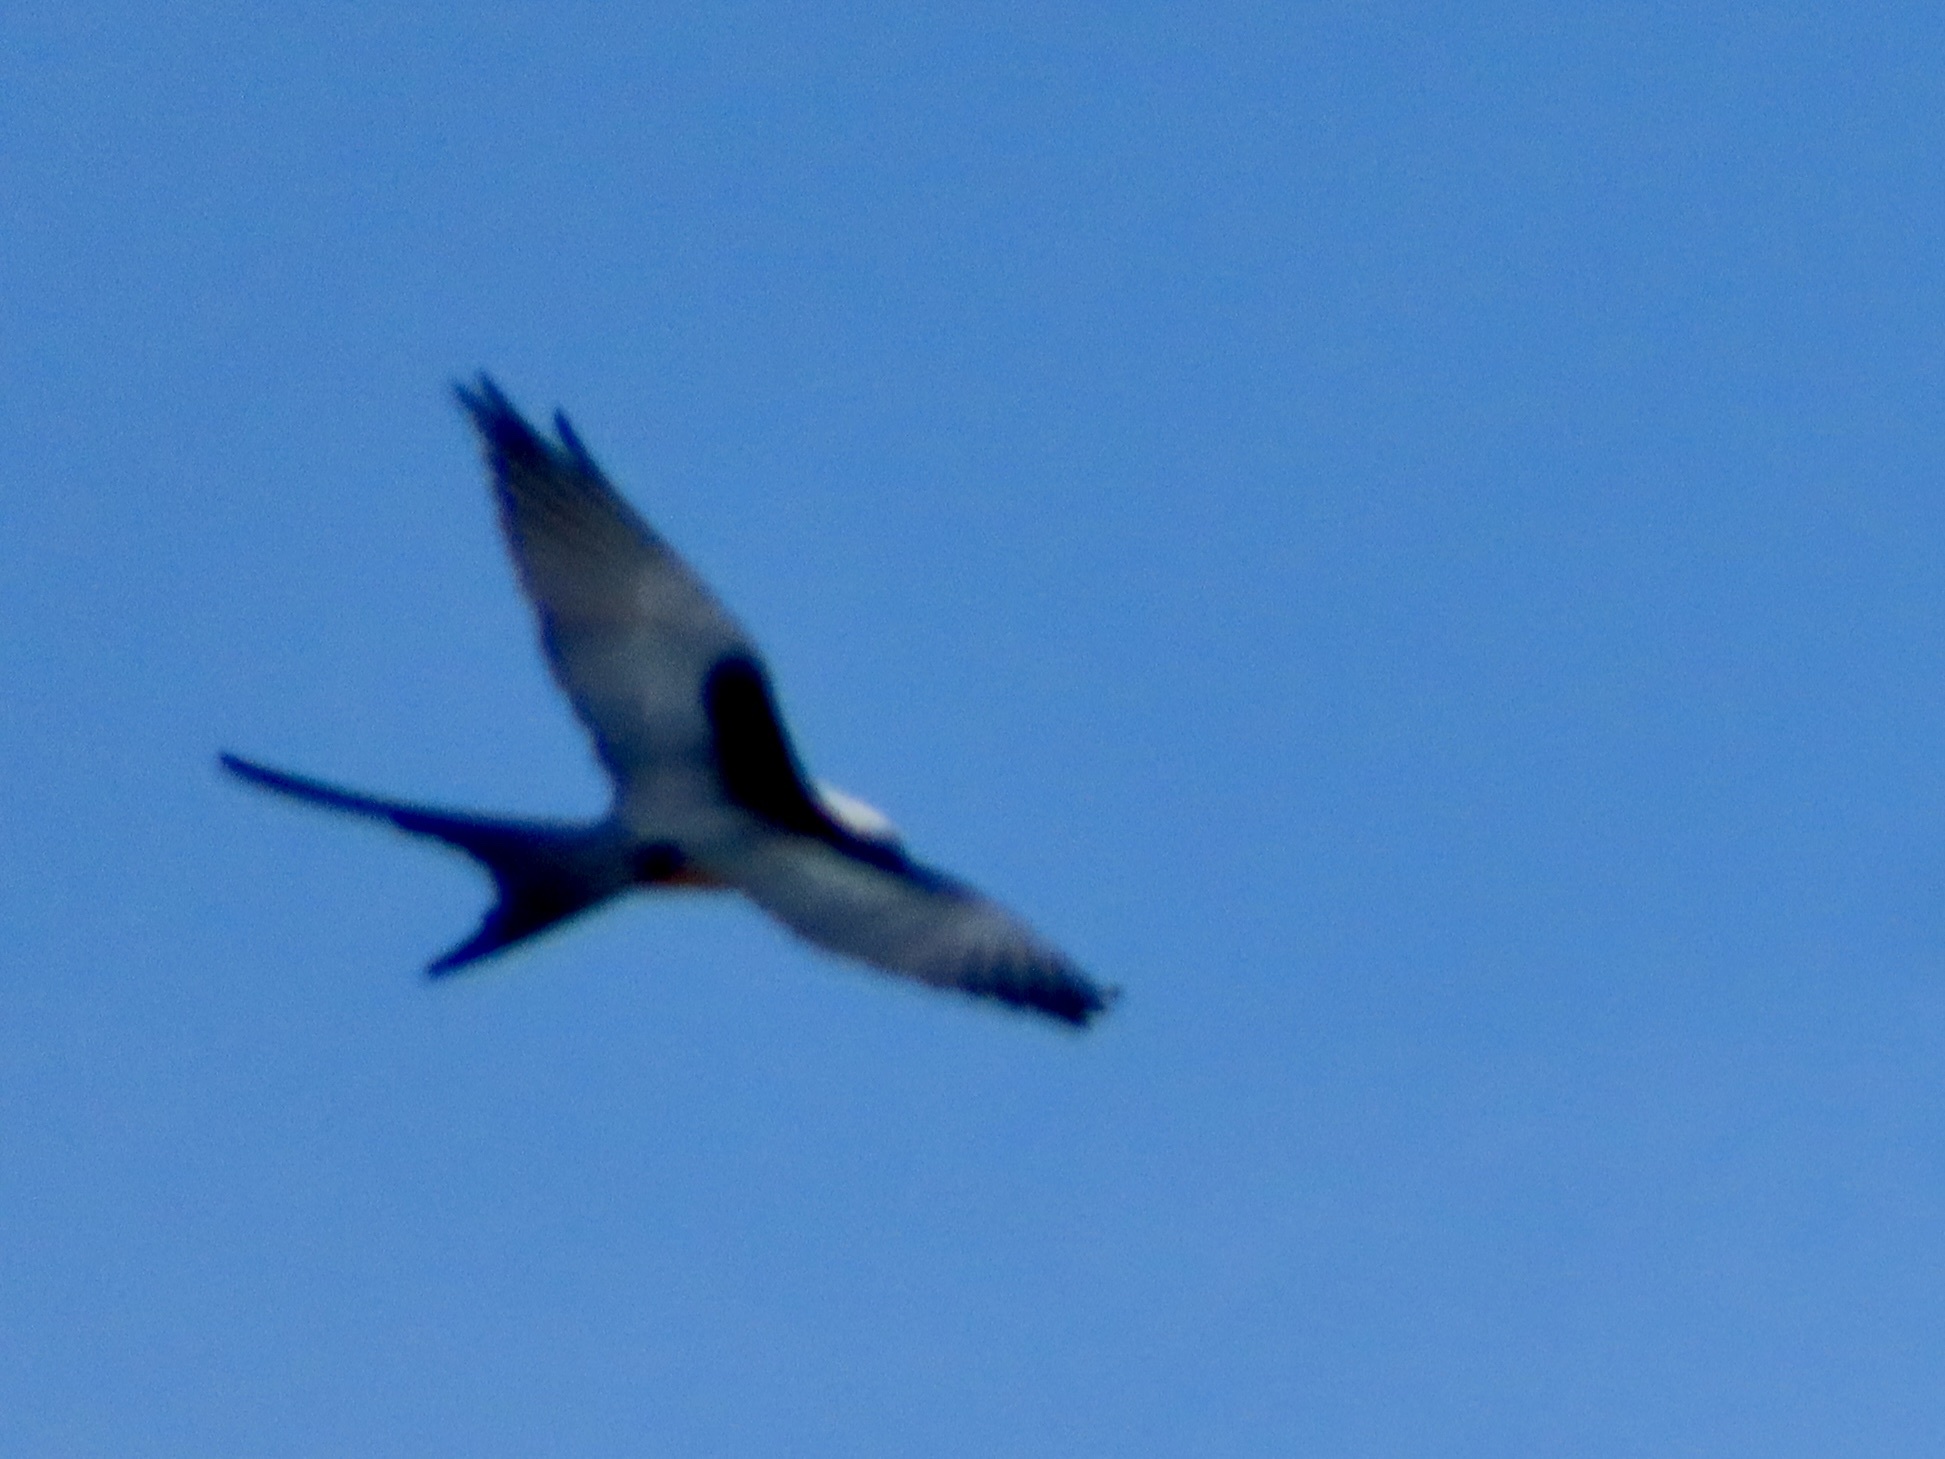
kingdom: Animalia
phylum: Chordata
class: Aves
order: Accipitriformes
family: Accipitridae
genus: Elanoides
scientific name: Elanoides forficatus
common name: Swallow-tailed kite
